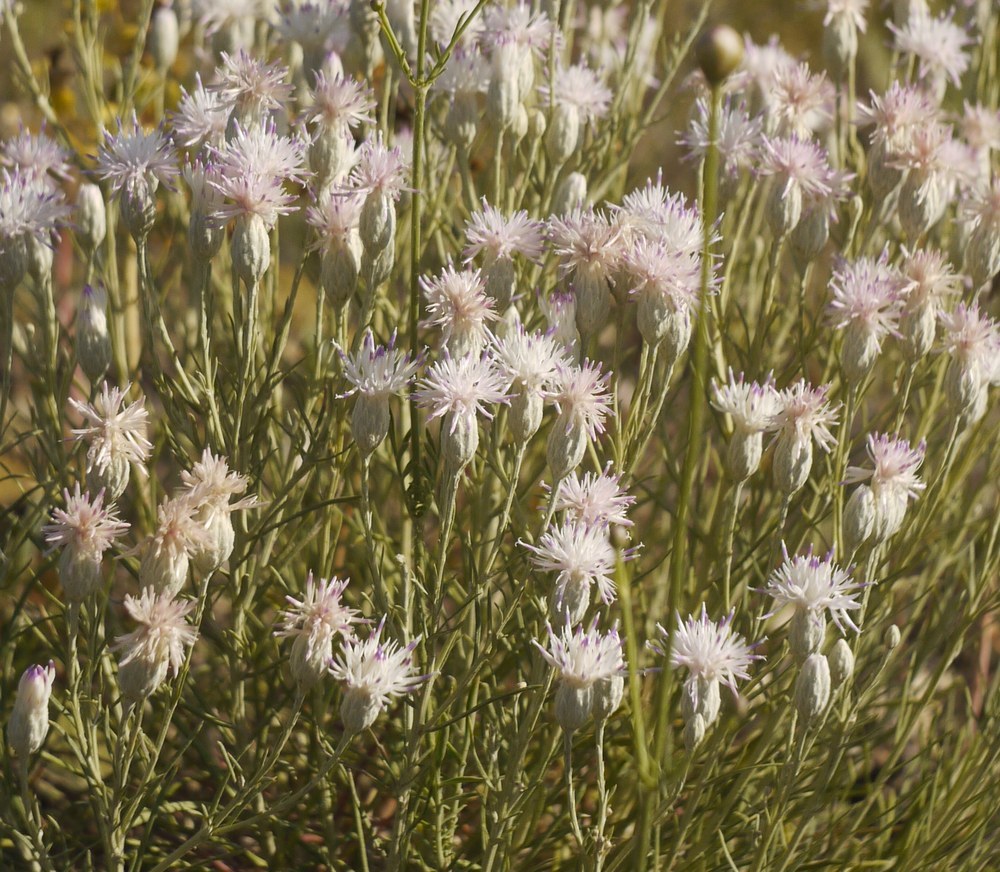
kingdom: Plantae
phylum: Tracheophyta
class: Magnoliopsida
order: Asterales
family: Asteraceae
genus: Jurinea
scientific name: Jurinea stoechadifolia
